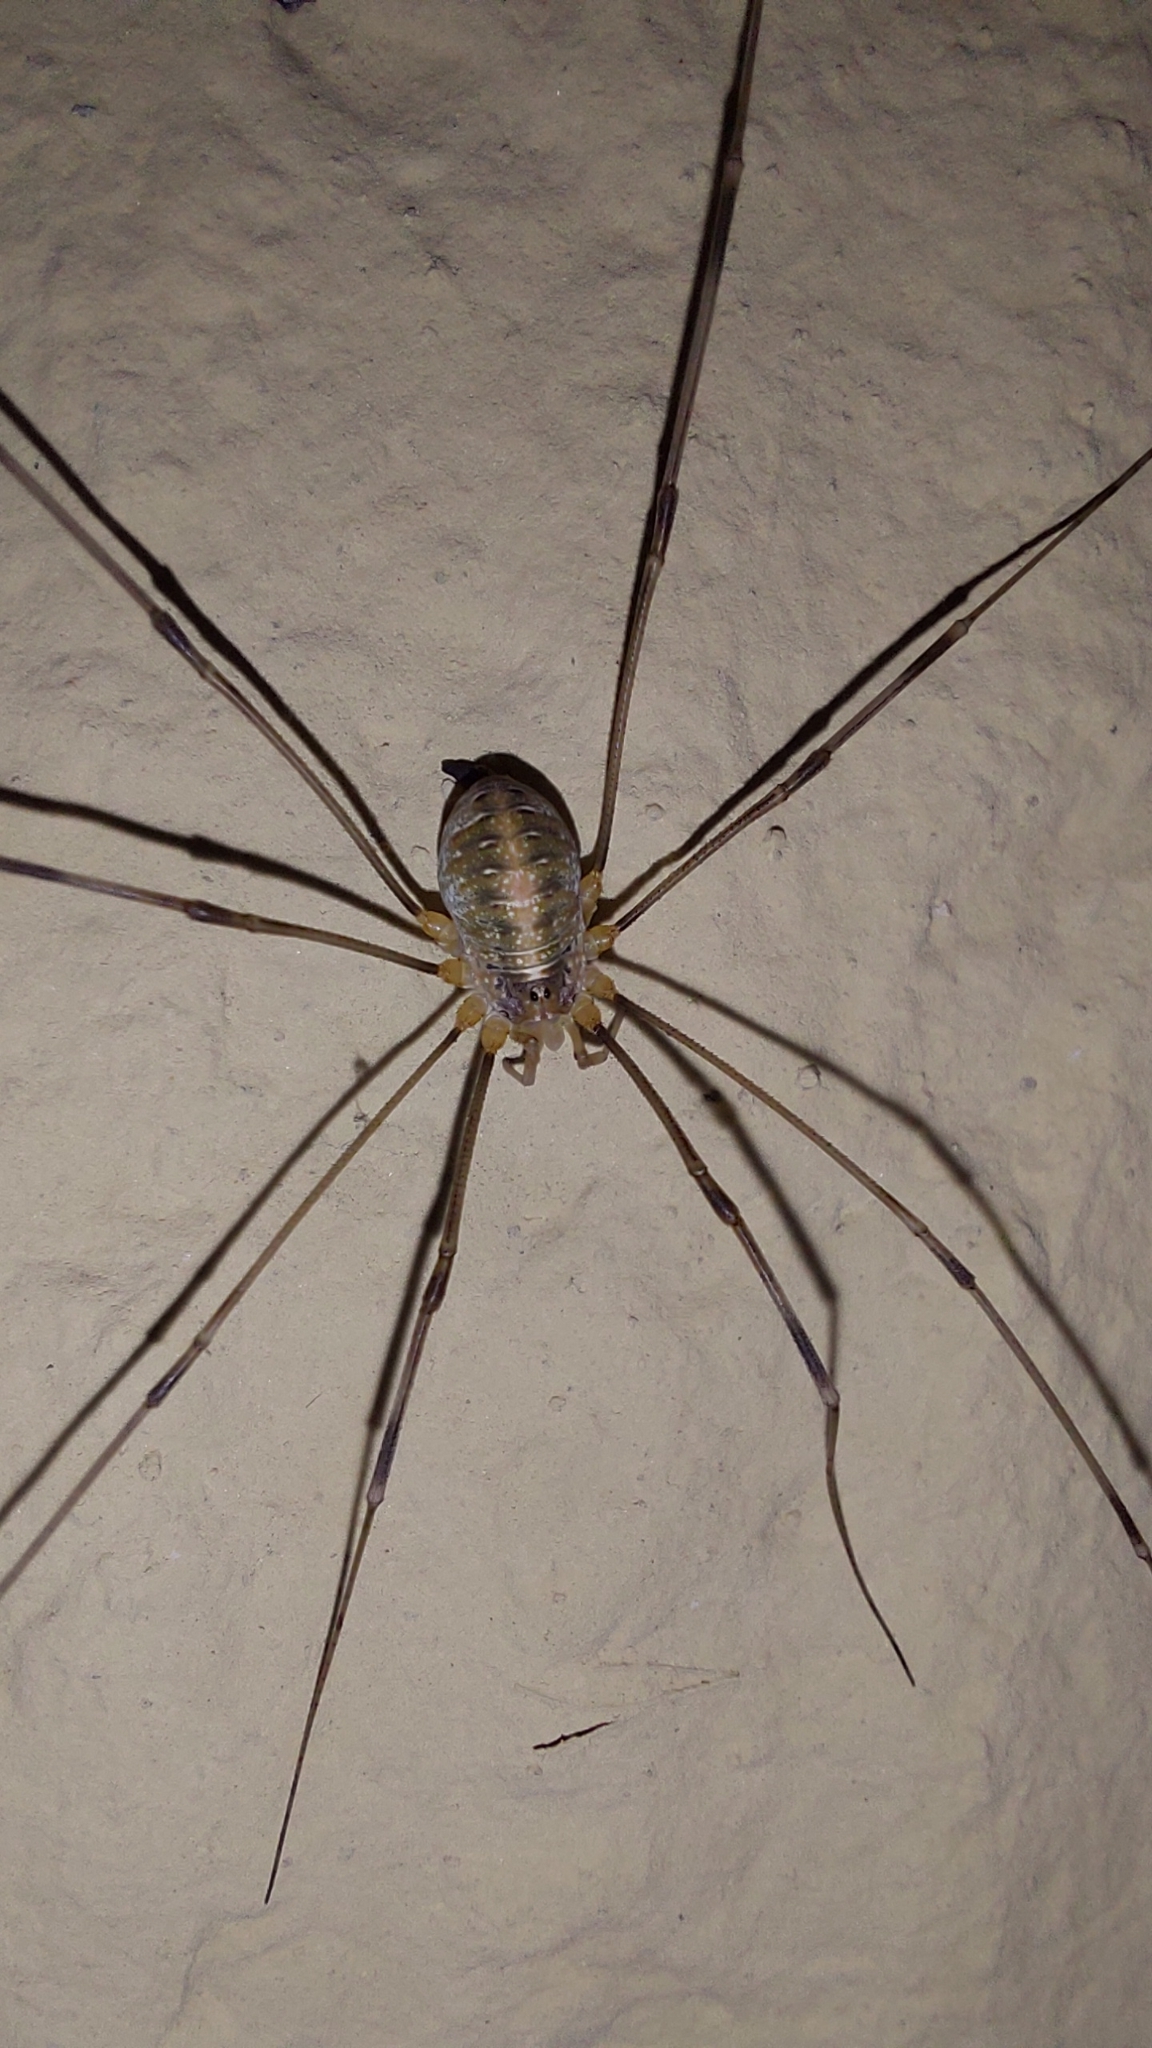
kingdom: Animalia
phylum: Arthropoda
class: Arachnida
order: Opiliones
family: Phalangiidae
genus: Opilio
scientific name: Opilio canestrinii
